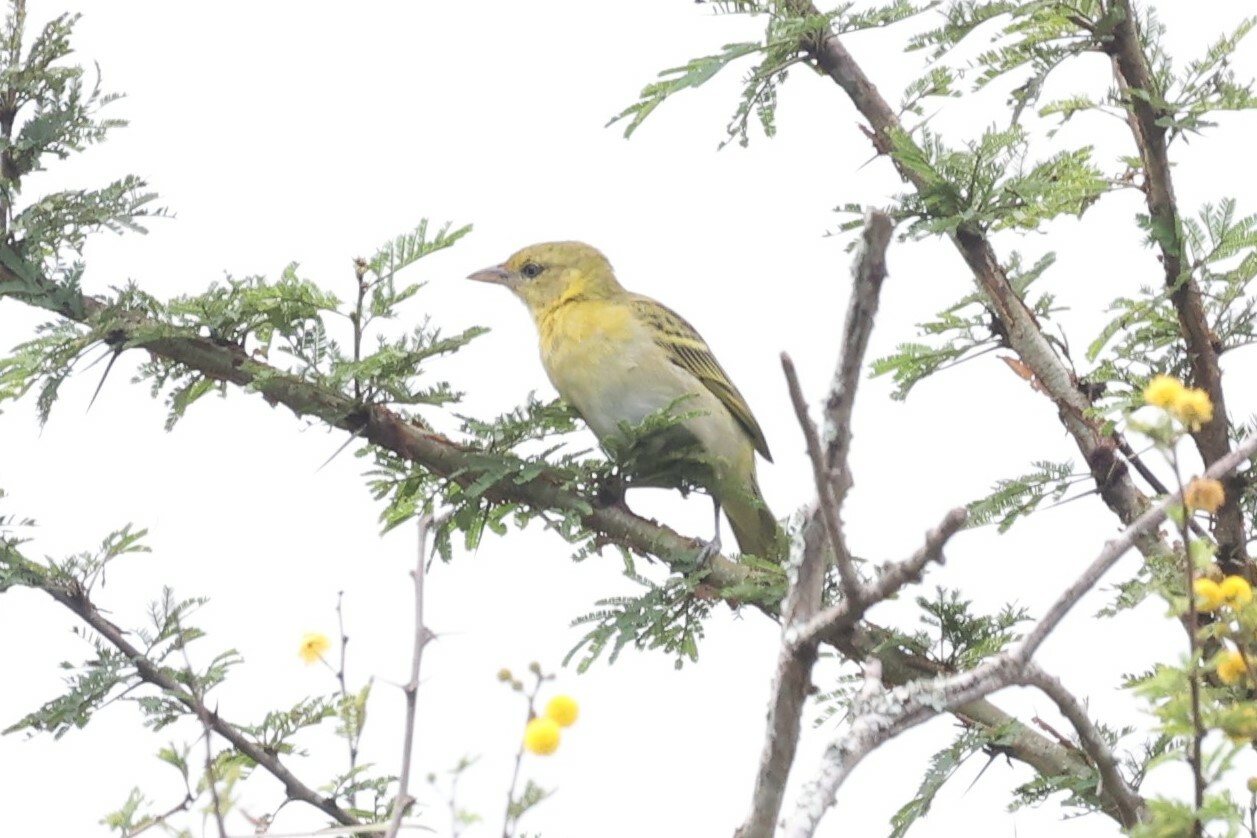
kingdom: Animalia
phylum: Chordata
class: Aves
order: Passeriformes
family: Ploceidae
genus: Ploceus
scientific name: Ploceus intermedius
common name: Lesser masked weaver
